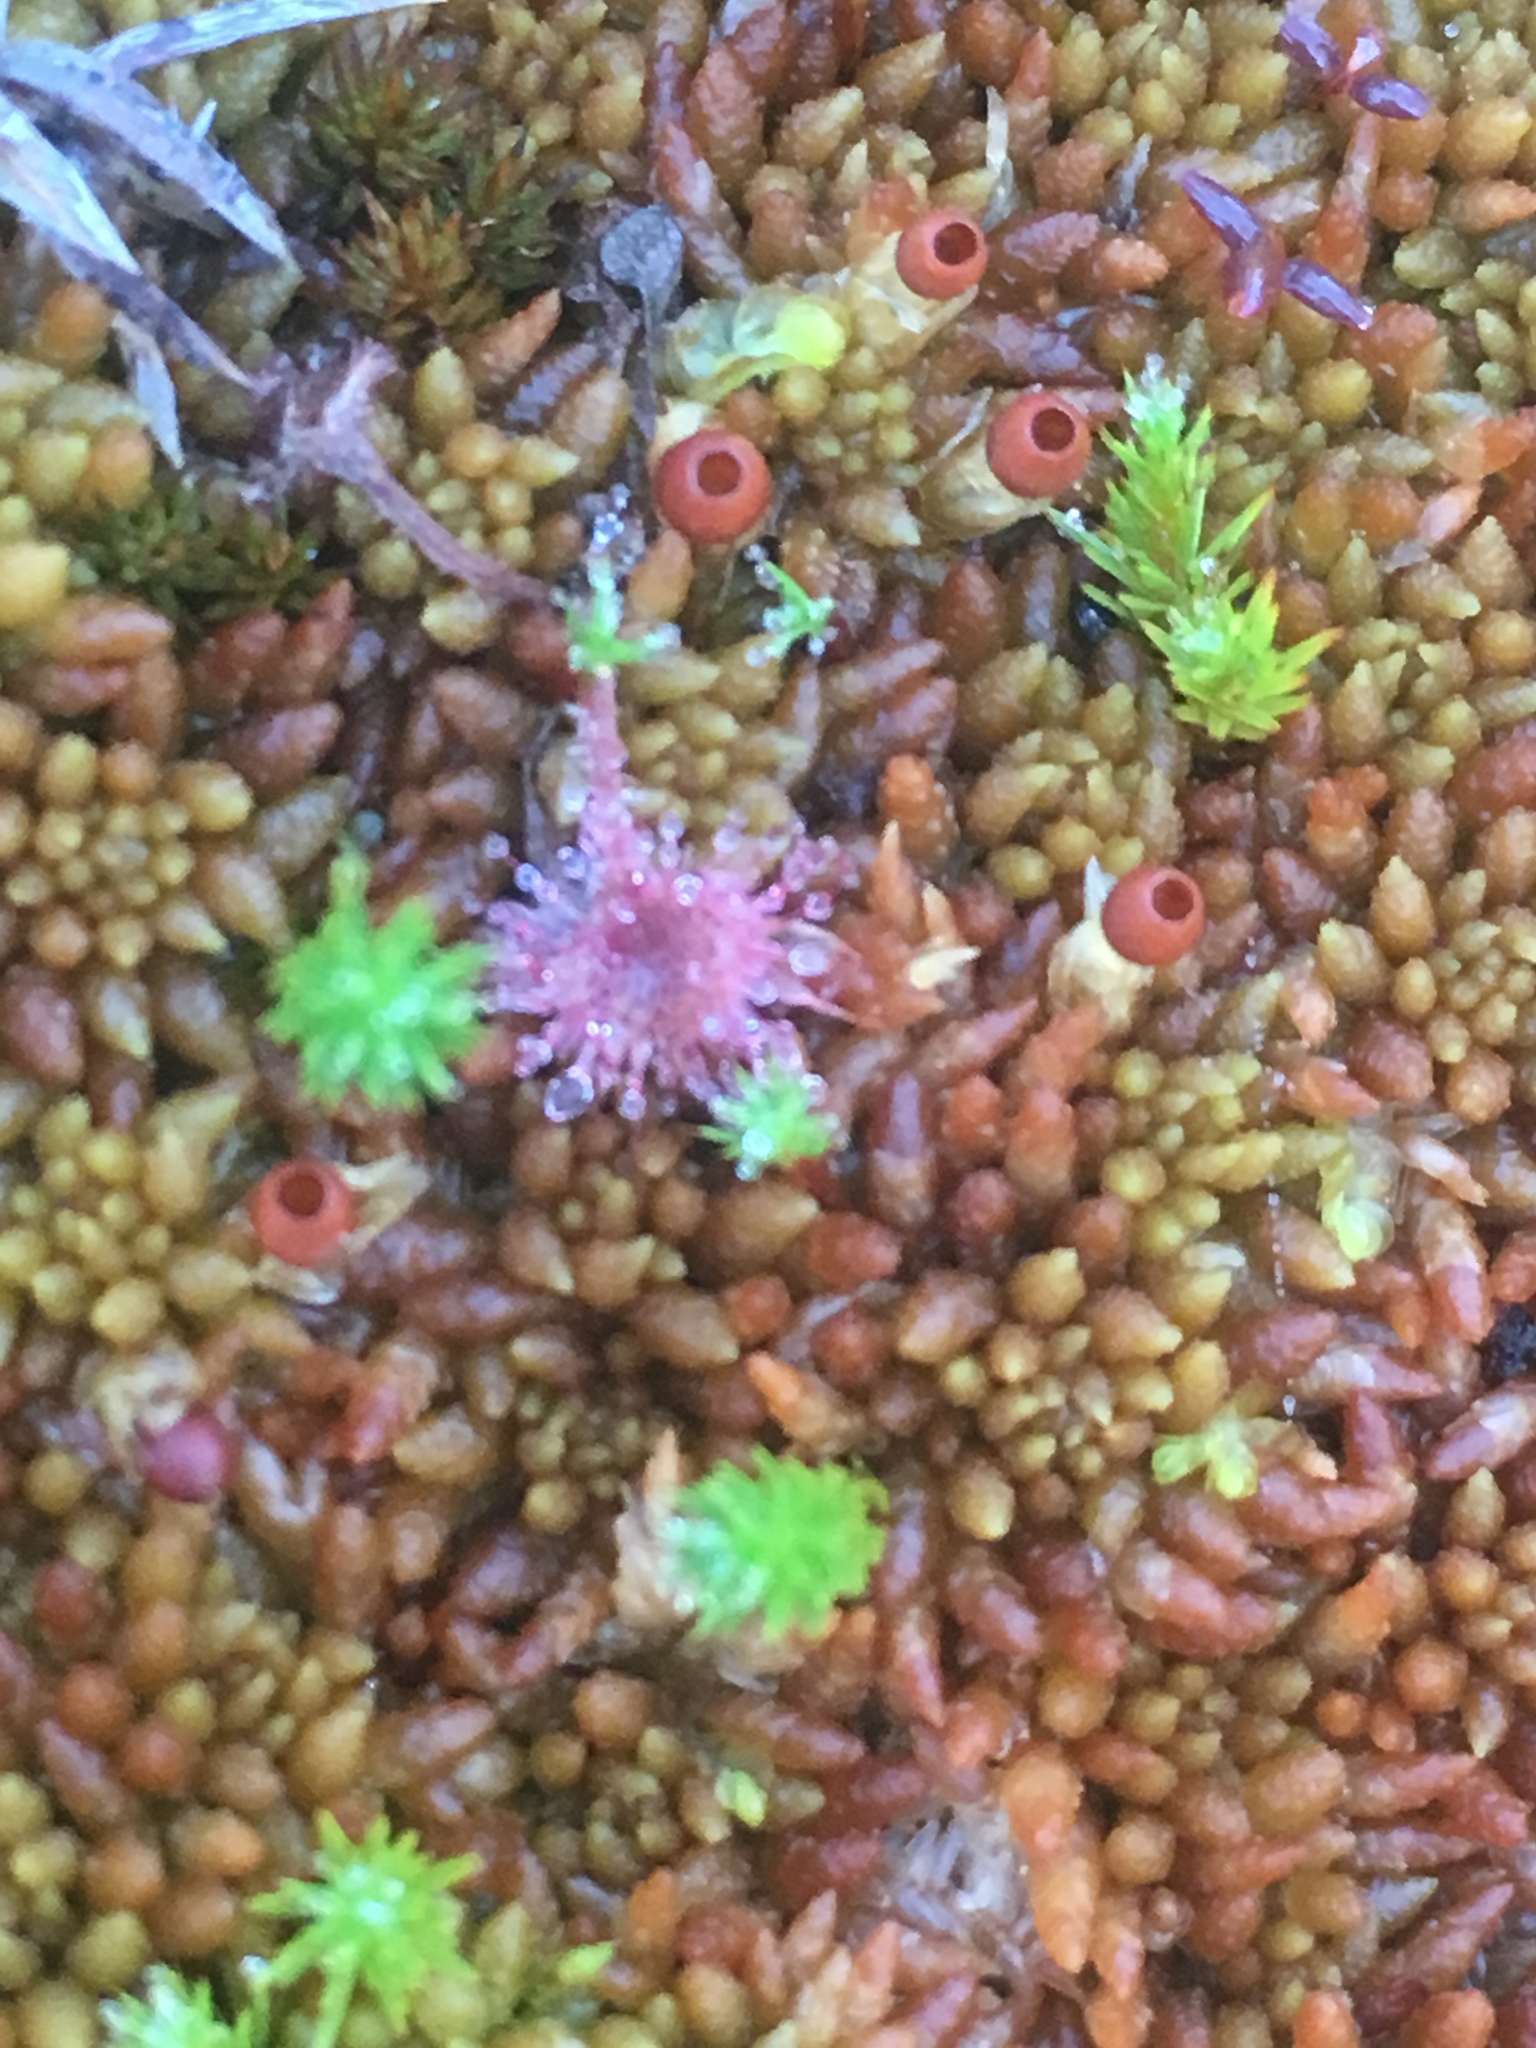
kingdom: Plantae
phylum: Tracheophyta
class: Magnoliopsida
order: Caryophyllales
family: Droseraceae
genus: Drosera
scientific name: Drosera rotundifolia
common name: Round-leaved sundew
